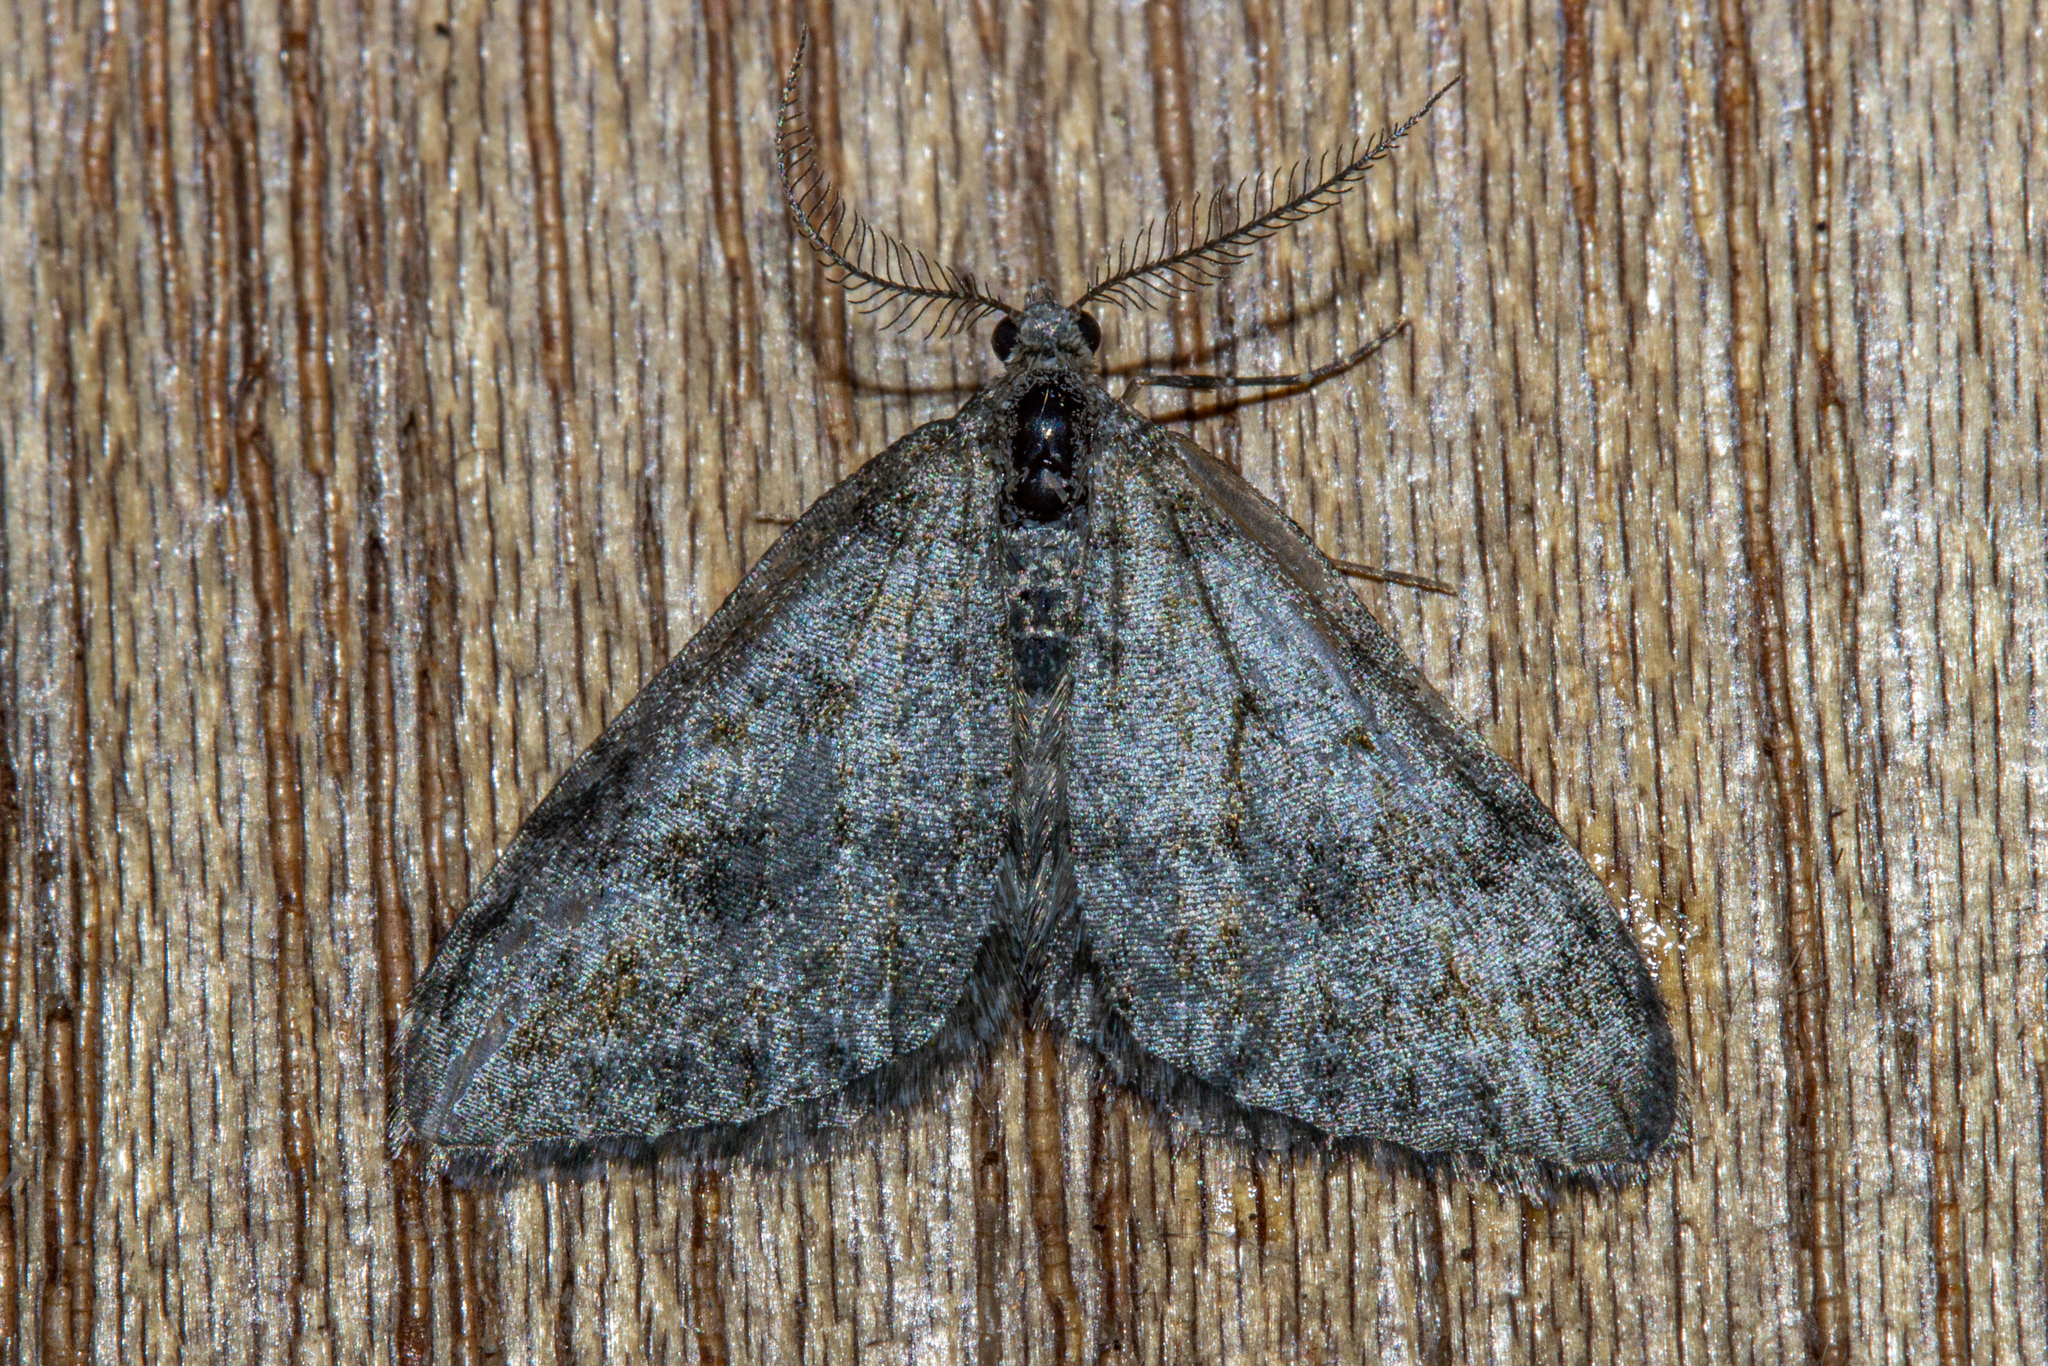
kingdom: Animalia
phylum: Arthropoda
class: Insecta
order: Lepidoptera
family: Geometridae
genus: Helastia
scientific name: Helastia plumbea
